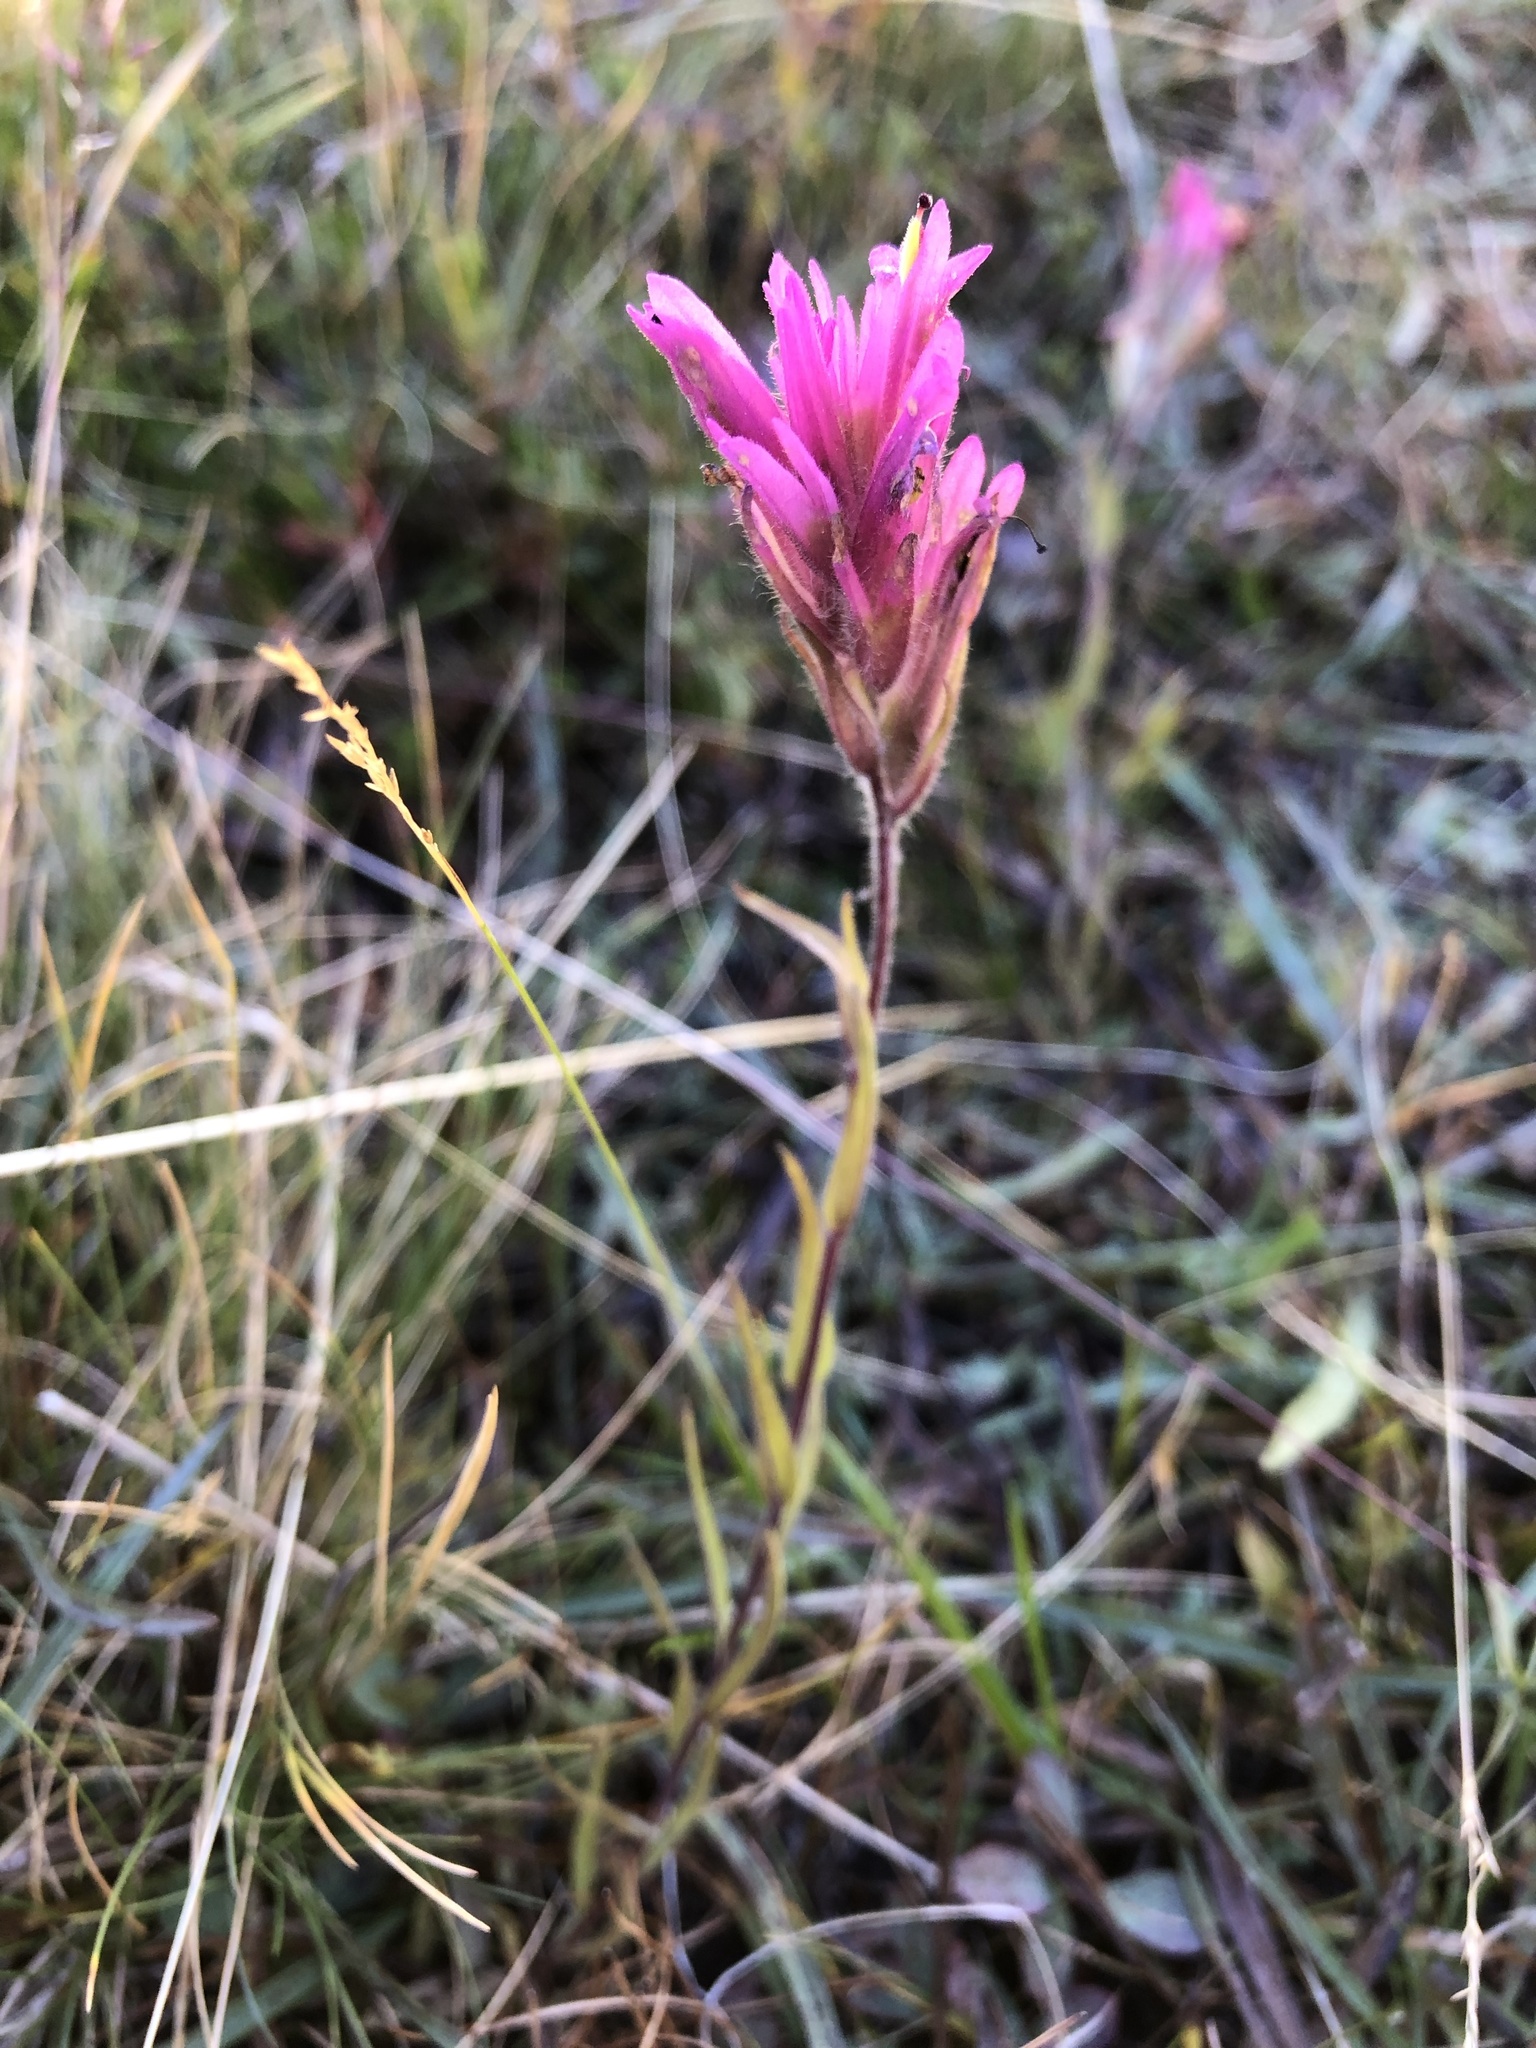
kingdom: Plantae
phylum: Tracheophyta
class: Magnoliopsida
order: Lamiales
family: Orobanchaceae
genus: Castilleja
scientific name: Castilleja lemmonii
